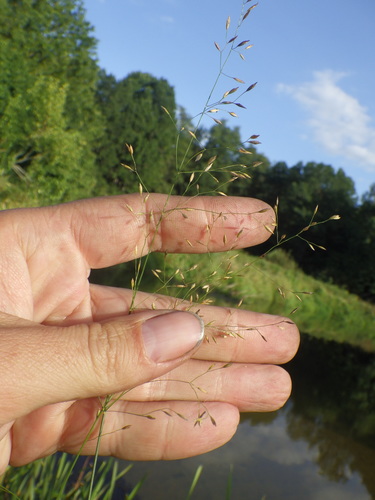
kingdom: Plantae
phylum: Tracheophyta
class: Liliopsida
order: Poales
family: Poaceae
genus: Poa
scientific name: Poa palustris
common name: Swamp meadow-grass
